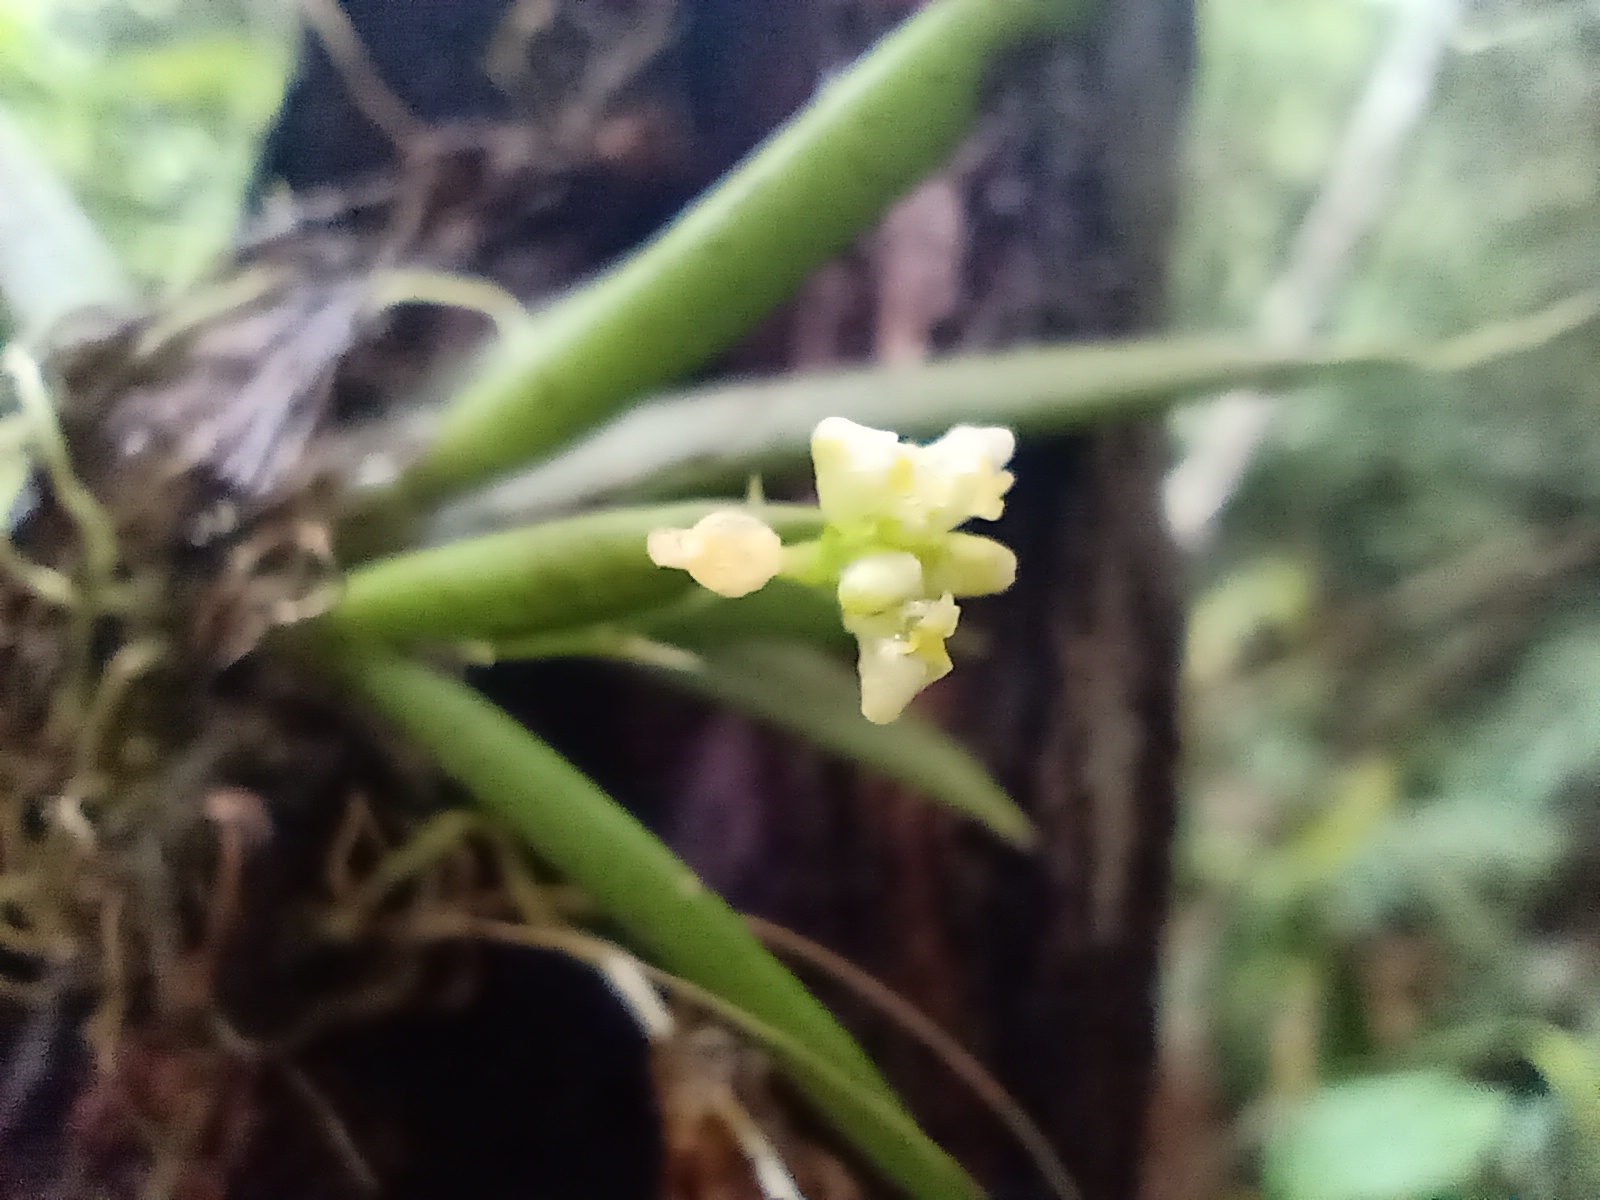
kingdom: Plantae
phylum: Tracheophyta
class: Liliopsida
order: Asparagales
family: Orchidaceae
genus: Trizeuxis
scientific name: Trizeuxis falcata
